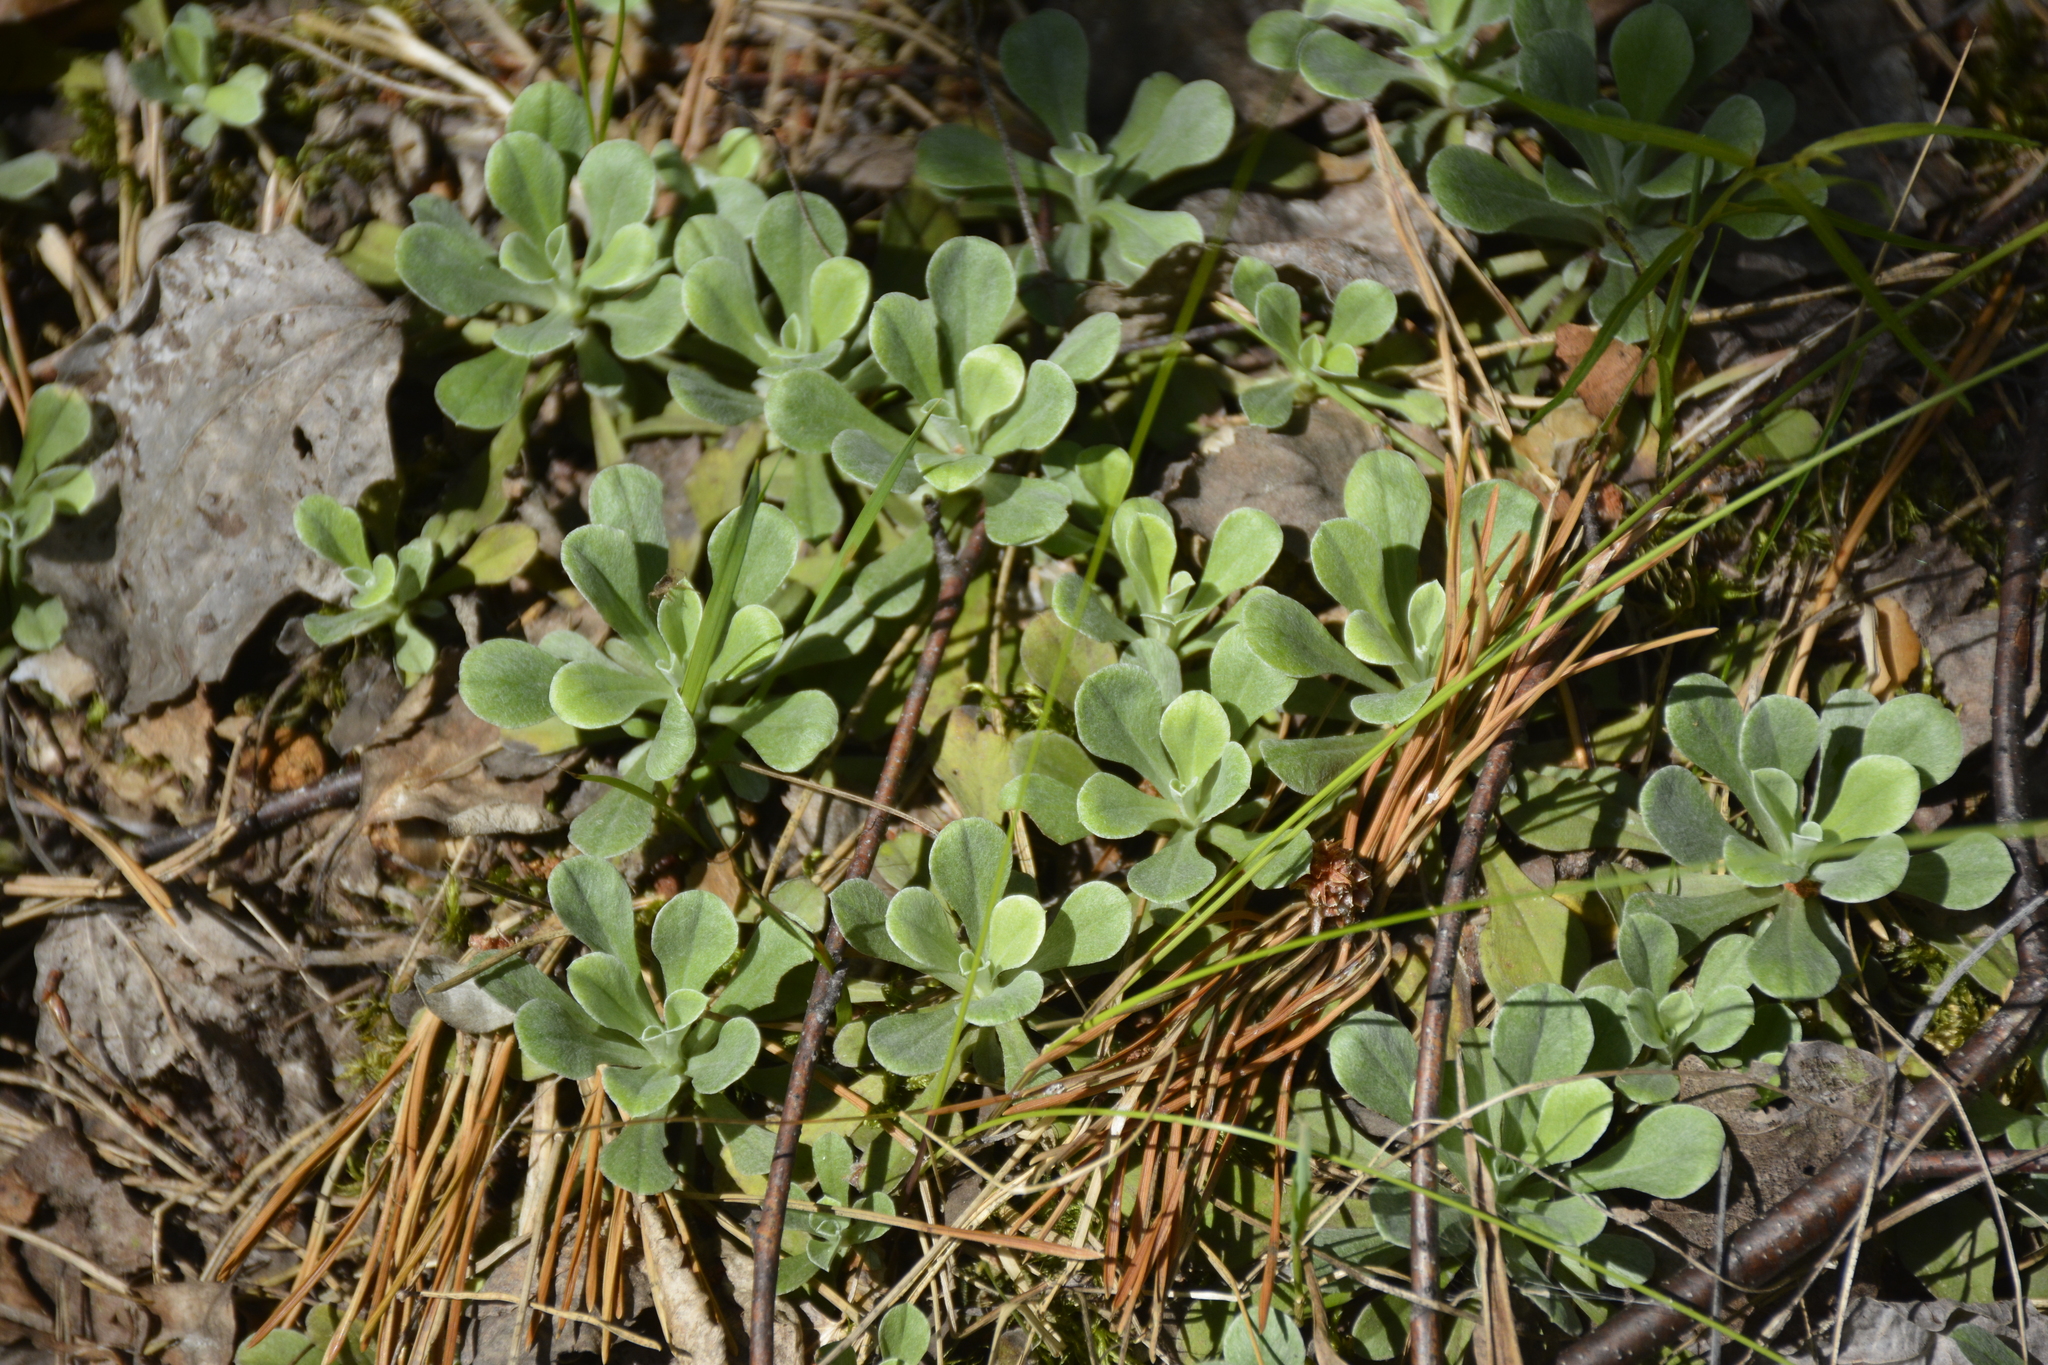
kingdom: Plantae
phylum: Tracheophyta
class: Magnoliopsida
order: Asterales
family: Asteraceae
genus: Antennaria
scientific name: Antennaria dioica
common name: Mountain everlasting
